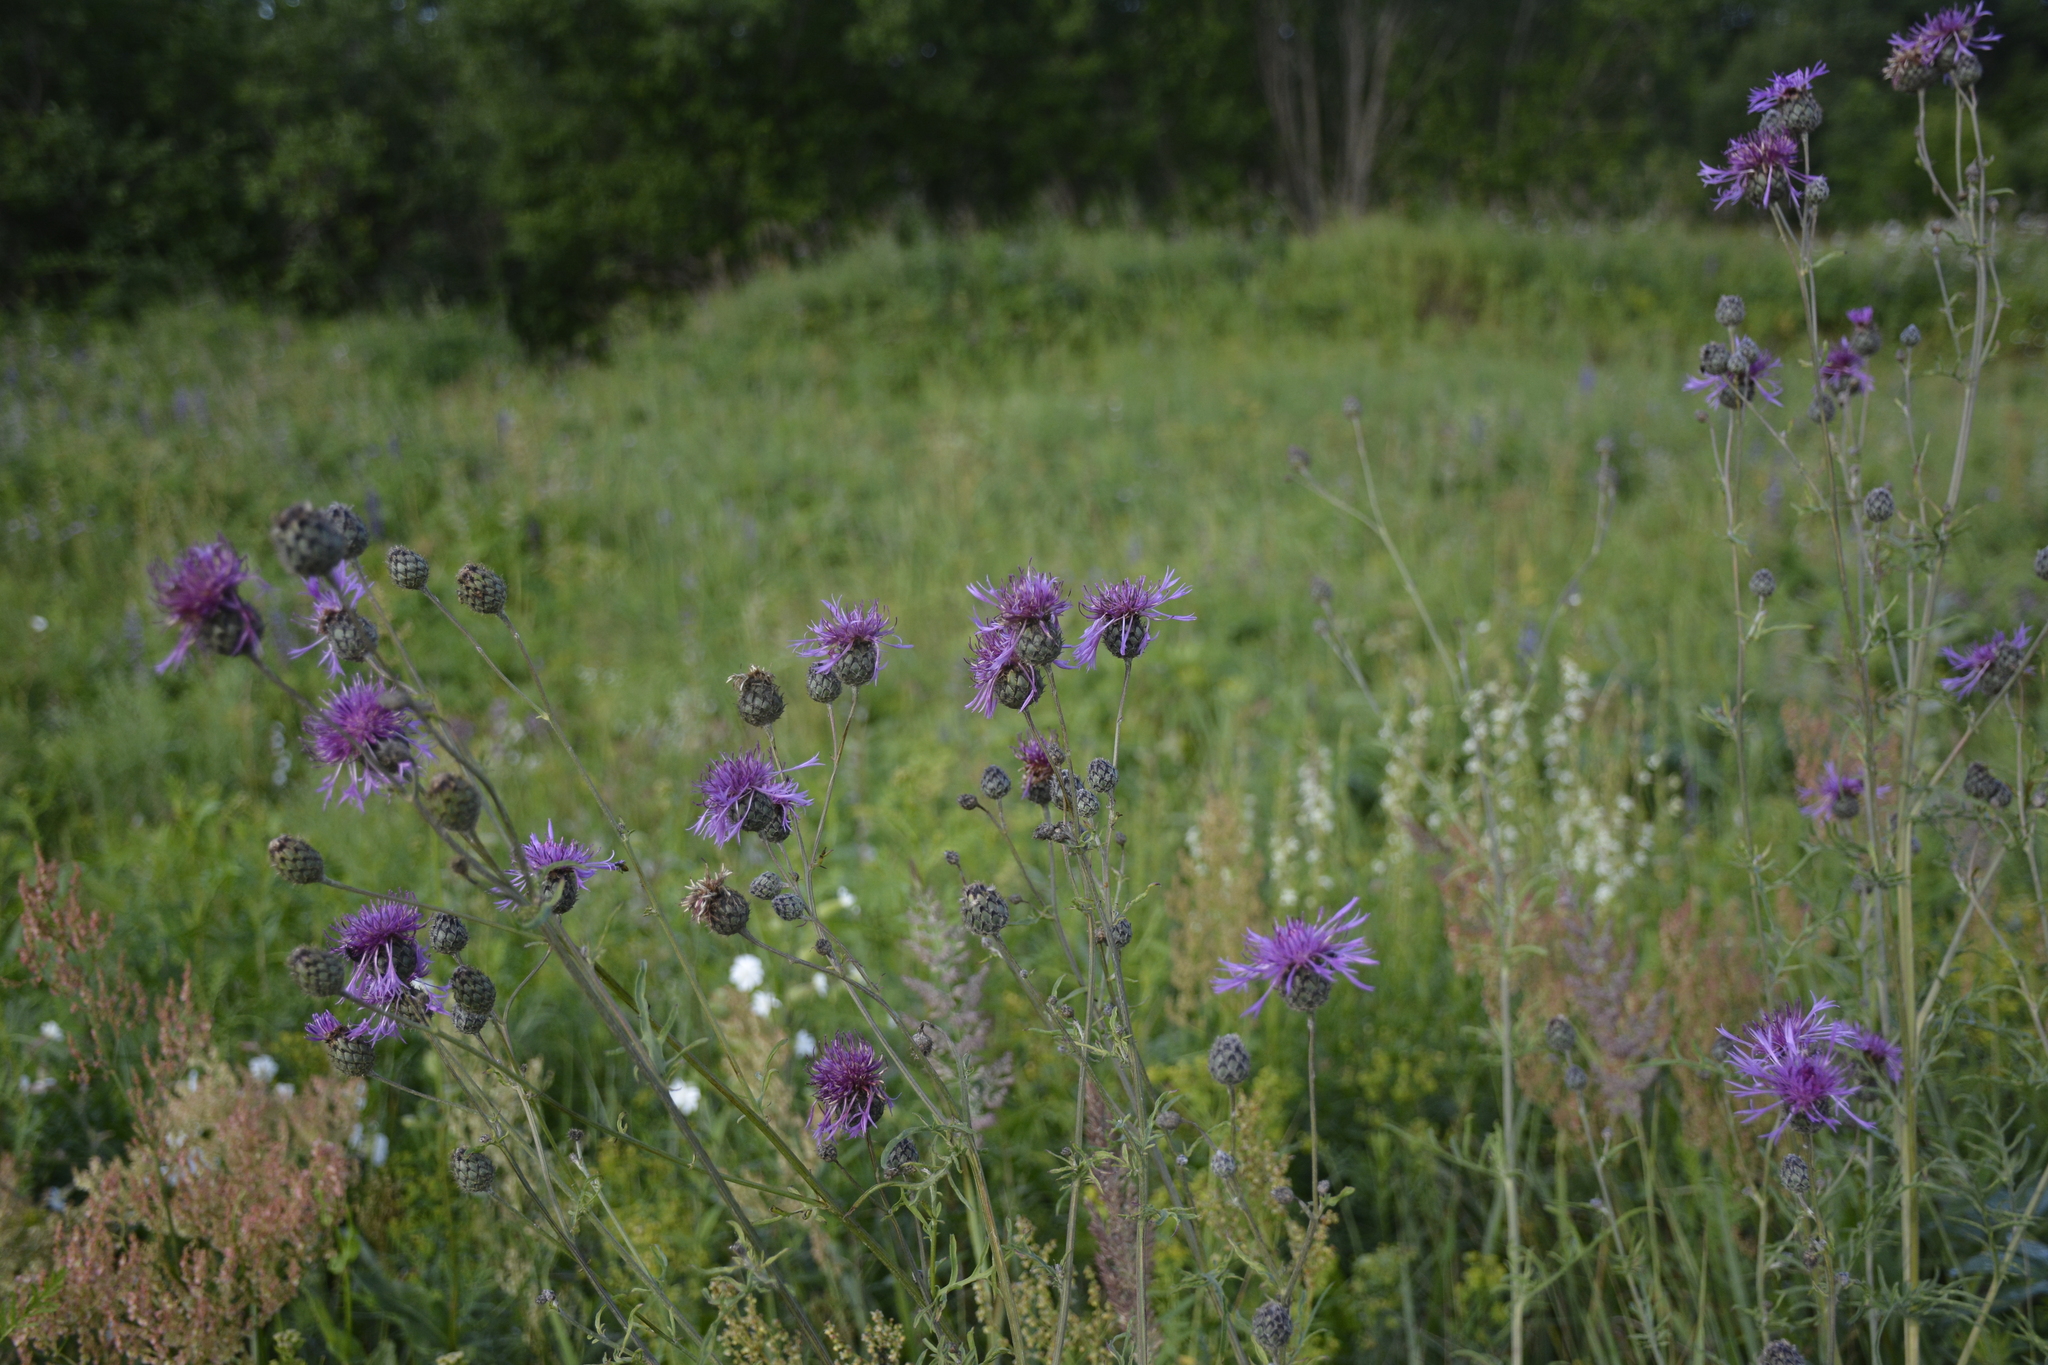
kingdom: Plantae
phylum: Tracheophyta
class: Magnoliopsida
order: Asterales
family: Asteraceae
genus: Centaurea
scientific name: Centaurea scabiosa
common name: Greater knapweed
